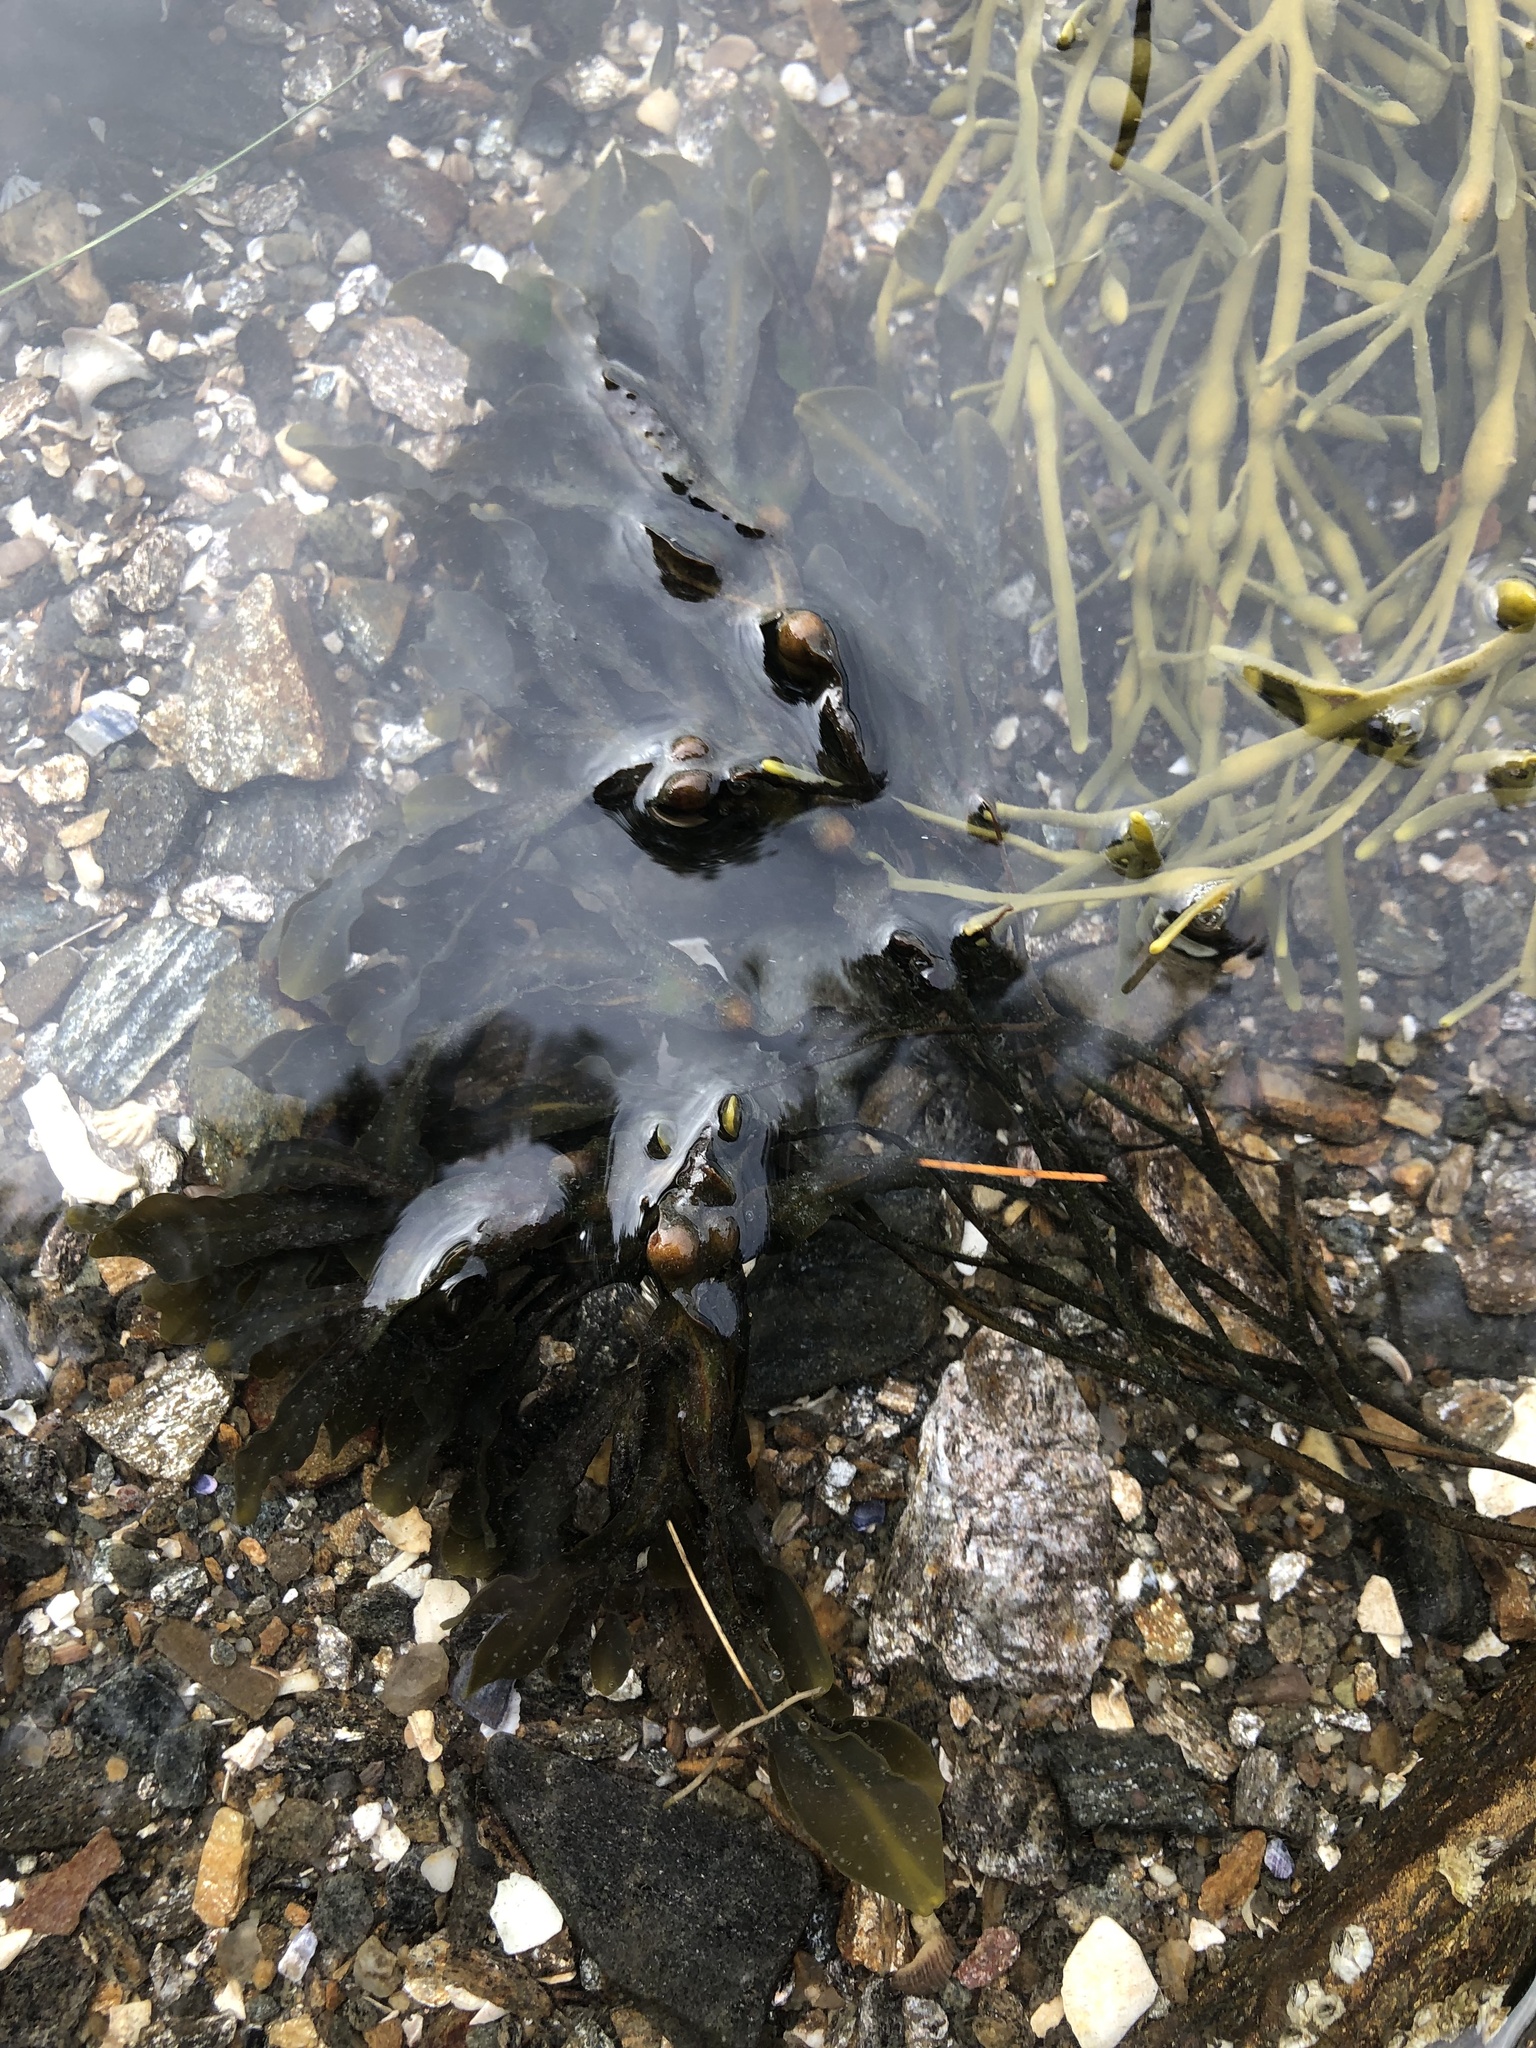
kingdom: Chromista
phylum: Ochrophyta
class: Phaeophyceae
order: Fucales
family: Fucaceae
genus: Fucus
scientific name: Fucus vesiculosus
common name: Bladder wrack
